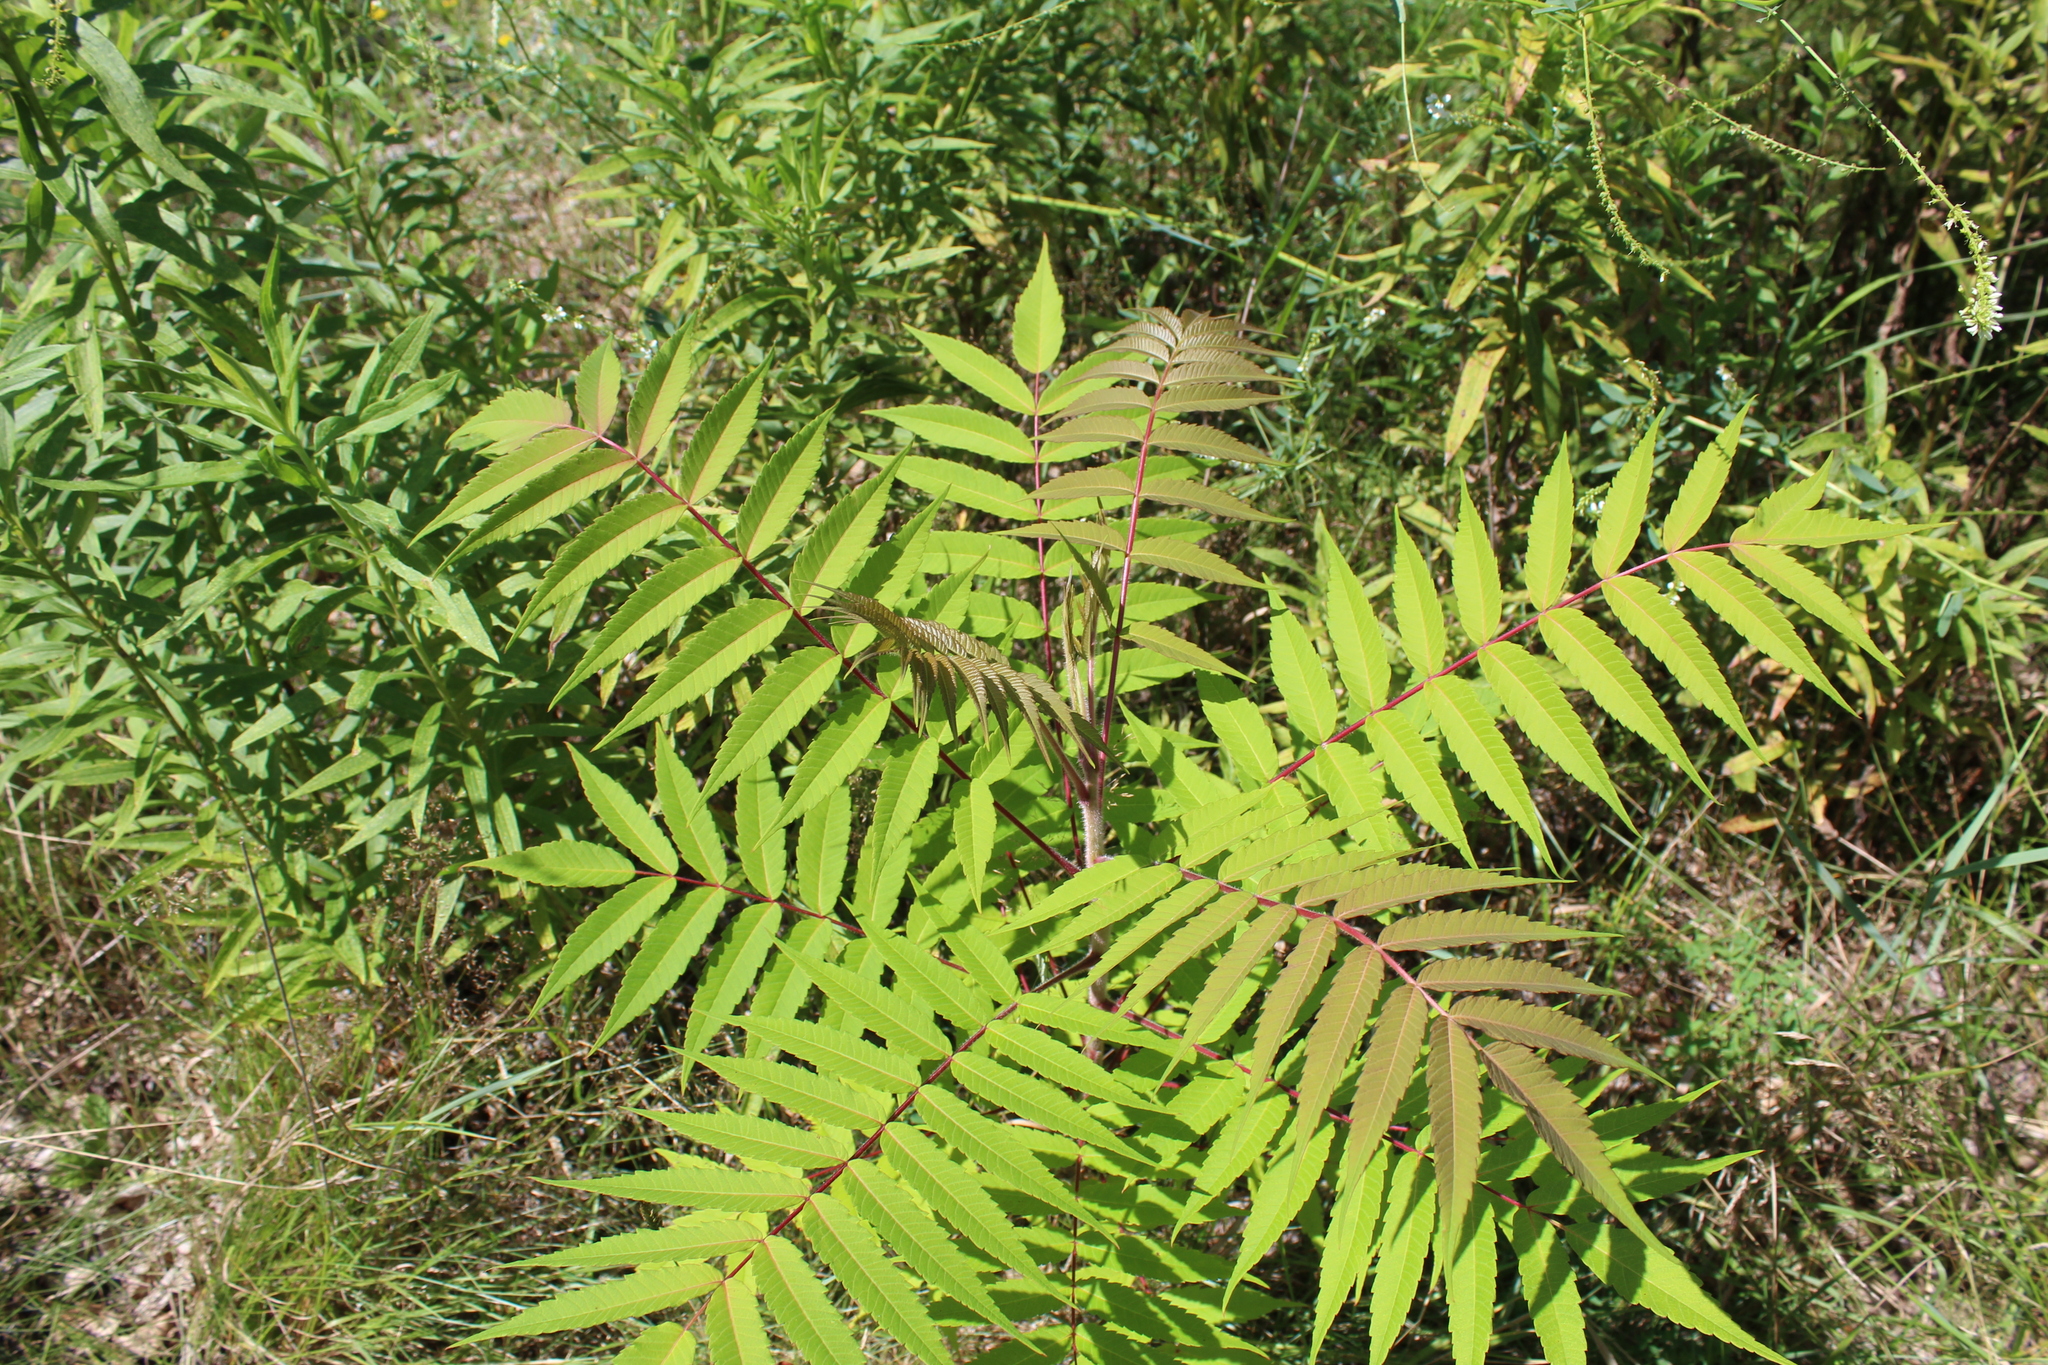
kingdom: Plantae
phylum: Tracheophyta
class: Magnoliopsida
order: Sapindales
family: Anacardiaceae
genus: Rhus
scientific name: Rhus typhina
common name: Staghorn sumac
